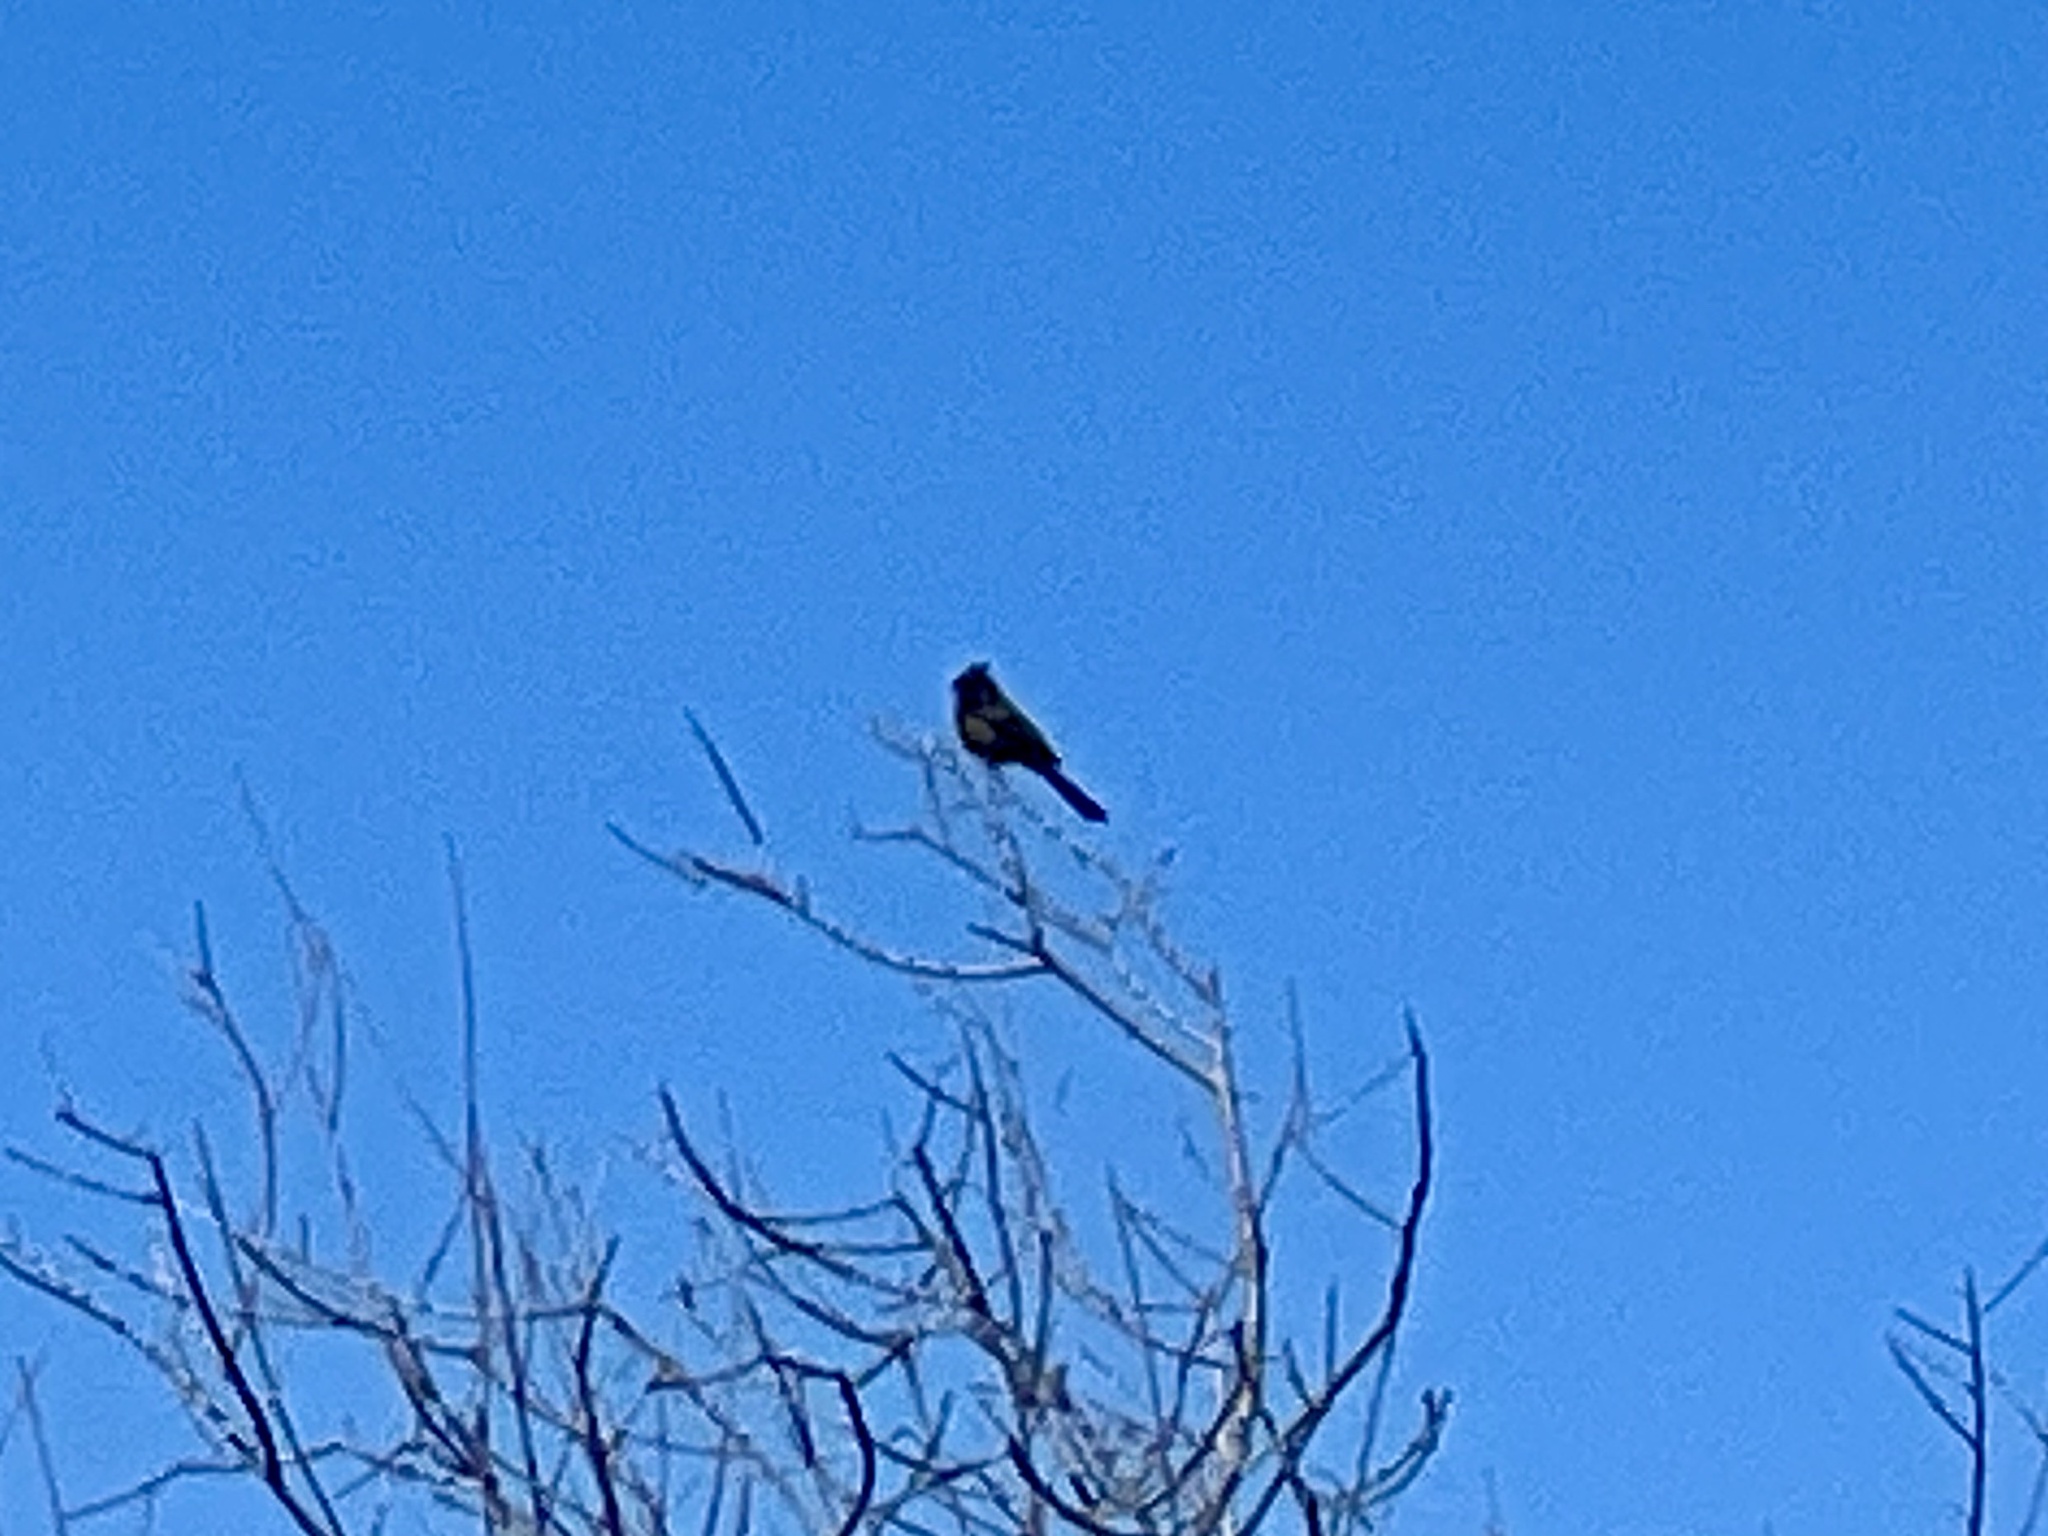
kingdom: Animalia
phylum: Chordata
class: Aves
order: Passeriformes
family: Ptilogonatidae
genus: Phainopepla
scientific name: Phainopepla nitens
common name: Phainopepla
